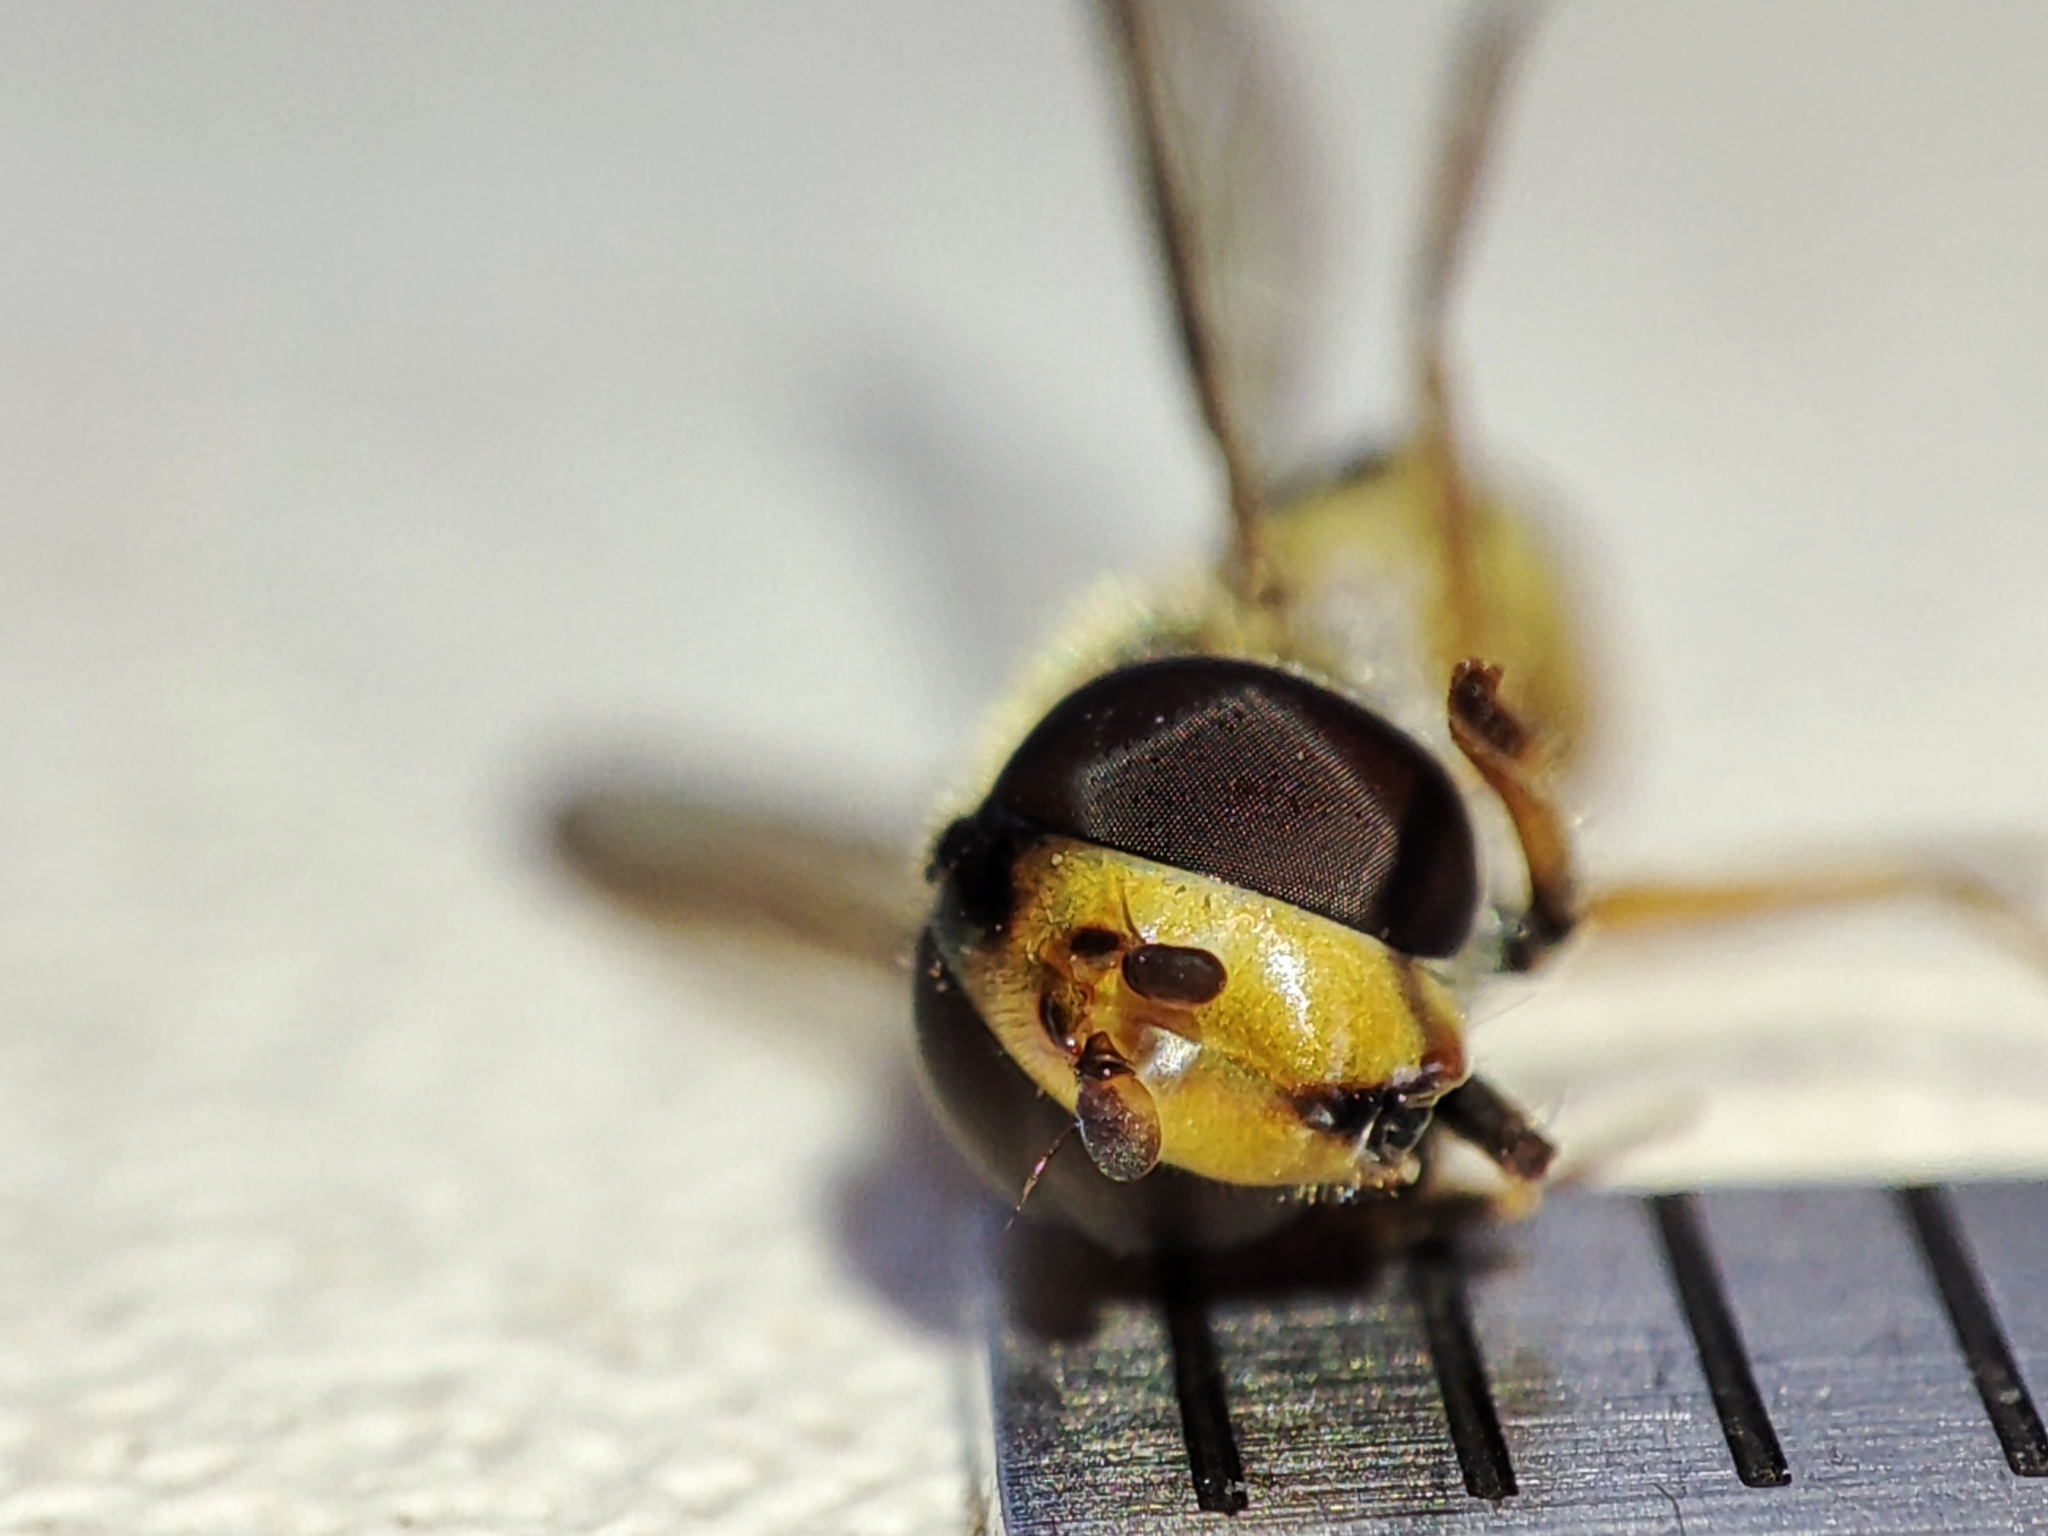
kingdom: Animalia
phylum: Arthropoda
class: Insecta
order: Diptera
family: Syrphidae
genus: Eupeodes
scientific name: Eupeodes corollae
